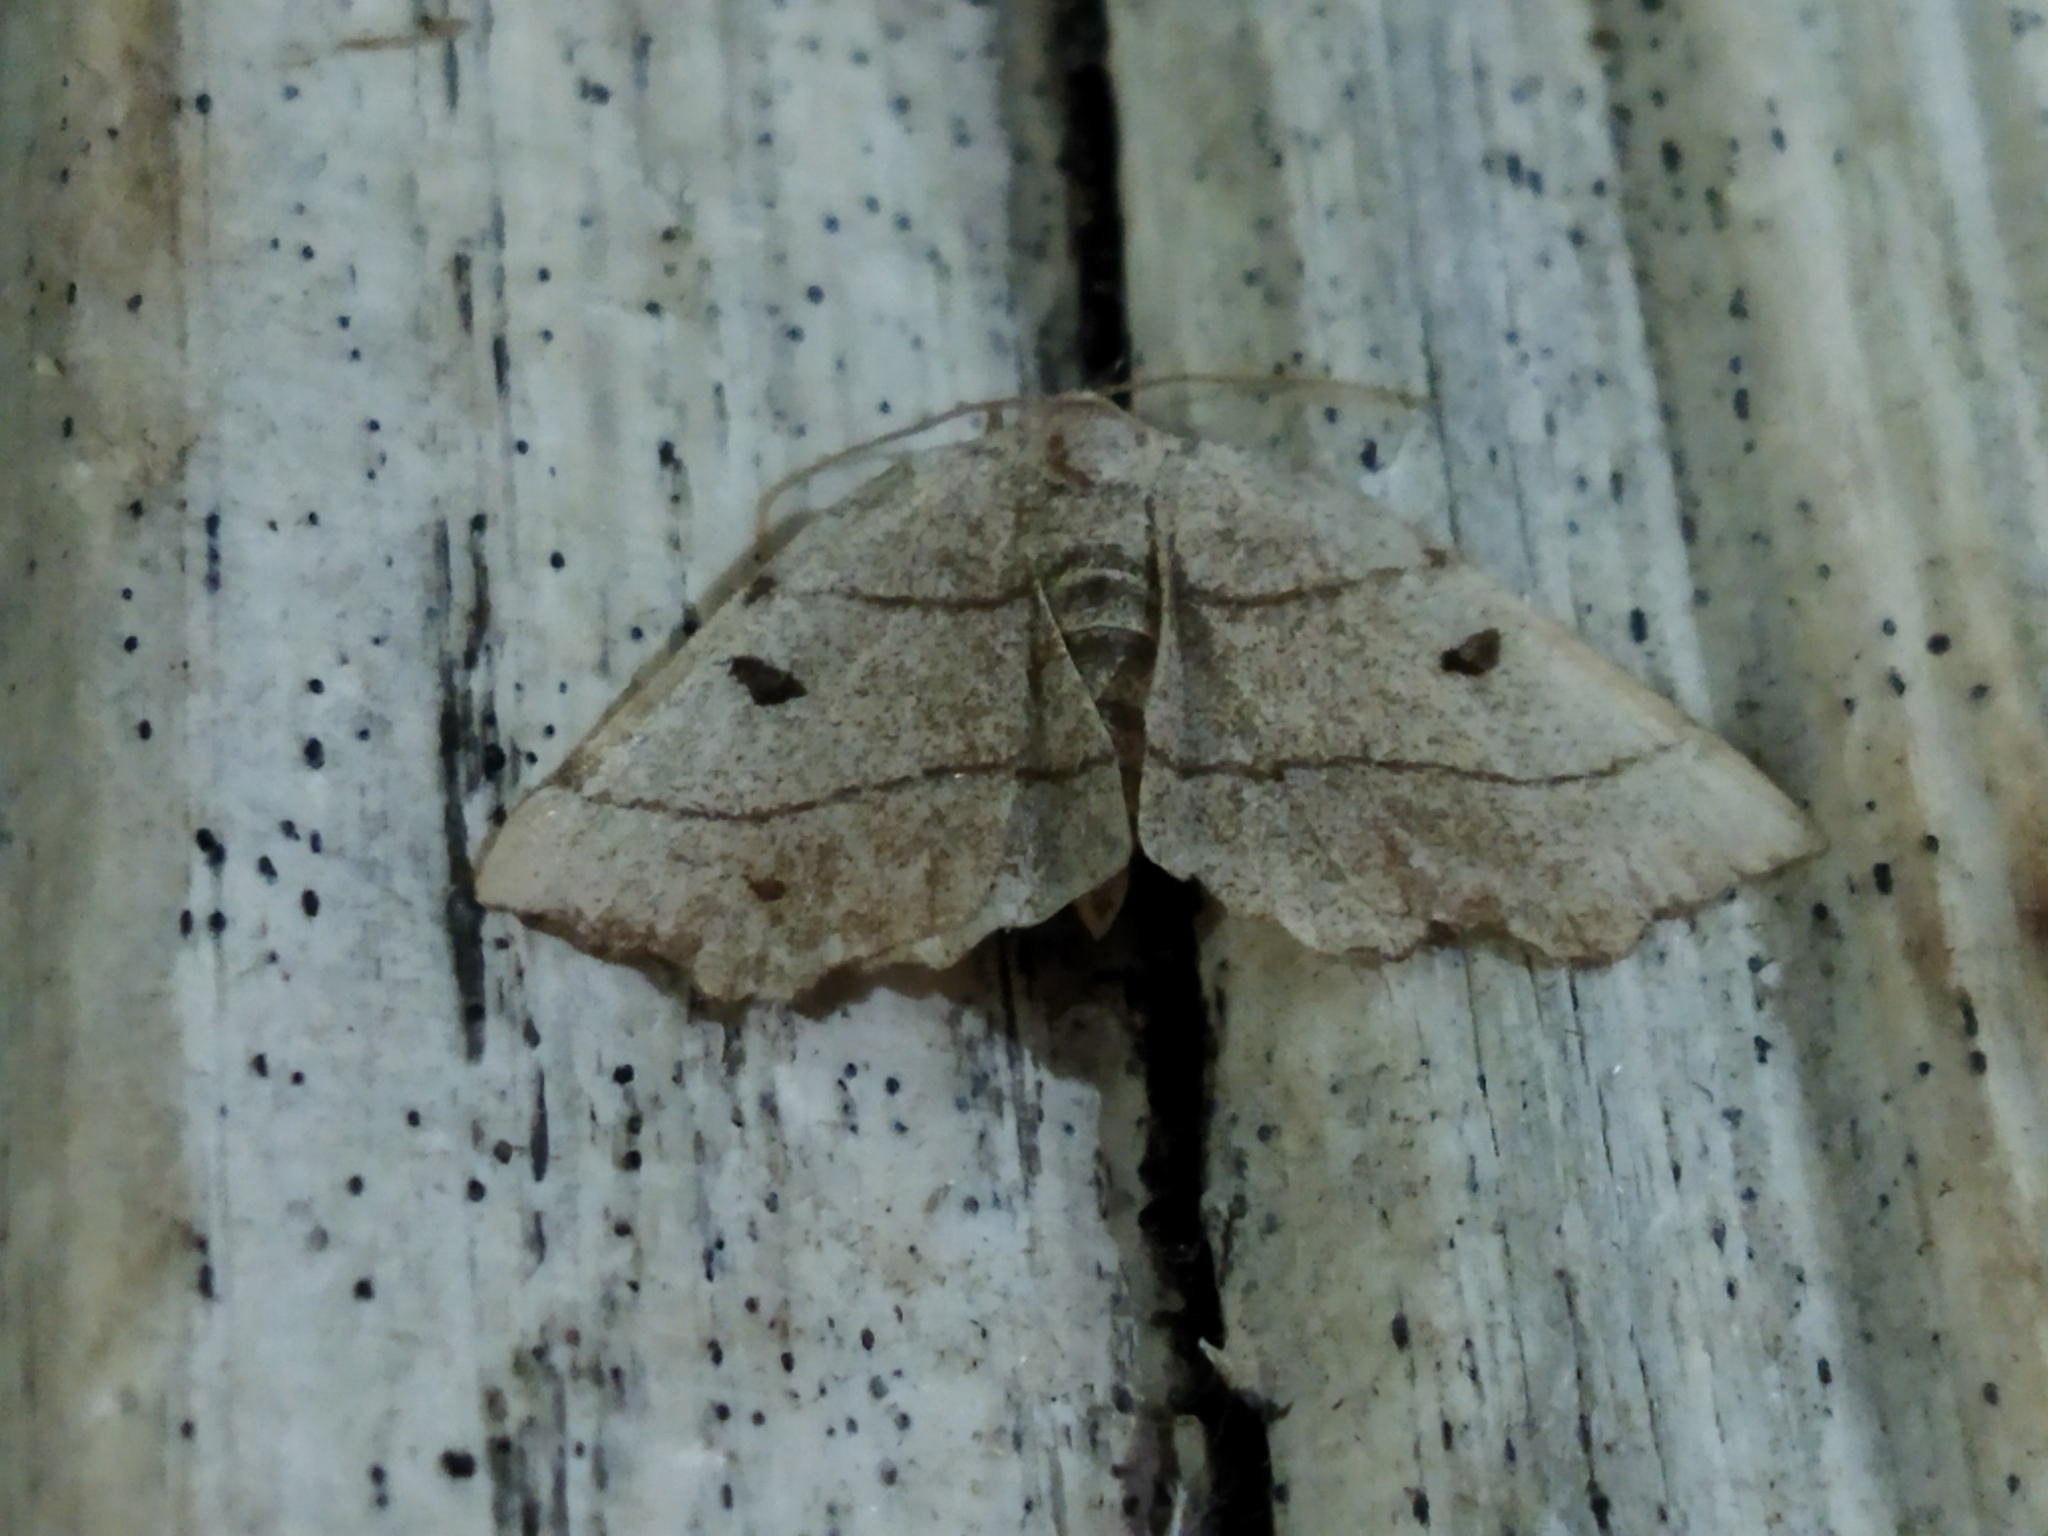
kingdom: Animalia
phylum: Arthropoda
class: Insecta
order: Lepidoptera
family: Geometridae
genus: Eilicrinia
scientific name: Eilicrinia trinotata
